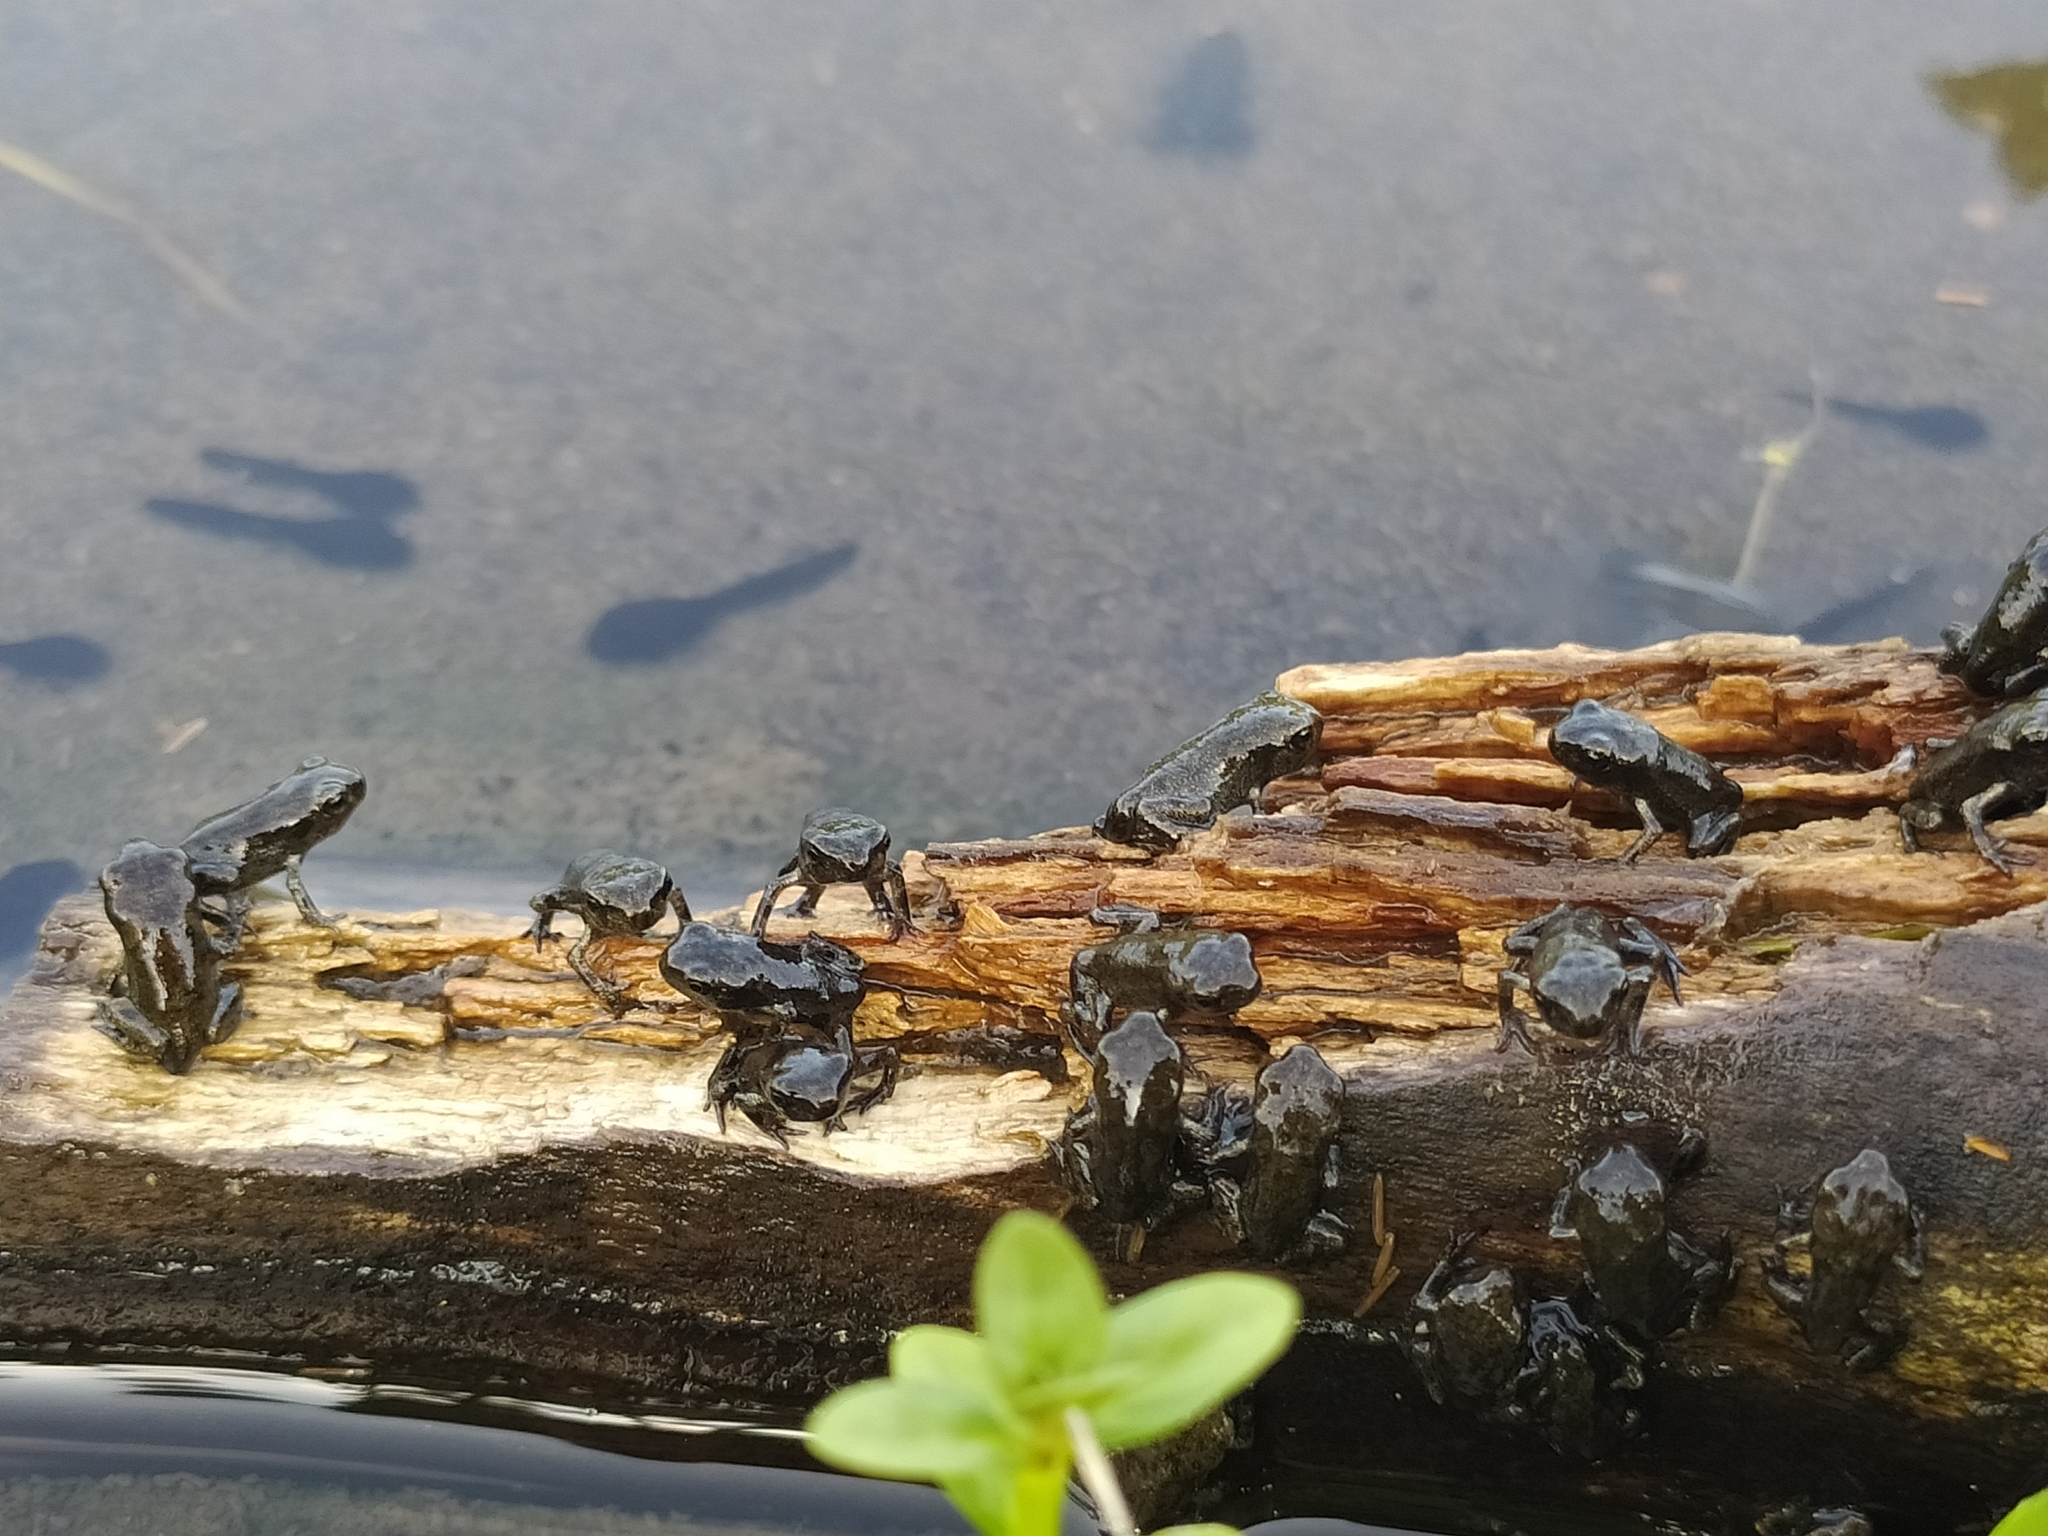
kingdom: Animalia
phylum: Chordata
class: Amphibia
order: Anura
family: Bufonidae
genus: Bufo
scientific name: Bufo bufo
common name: Common toad
